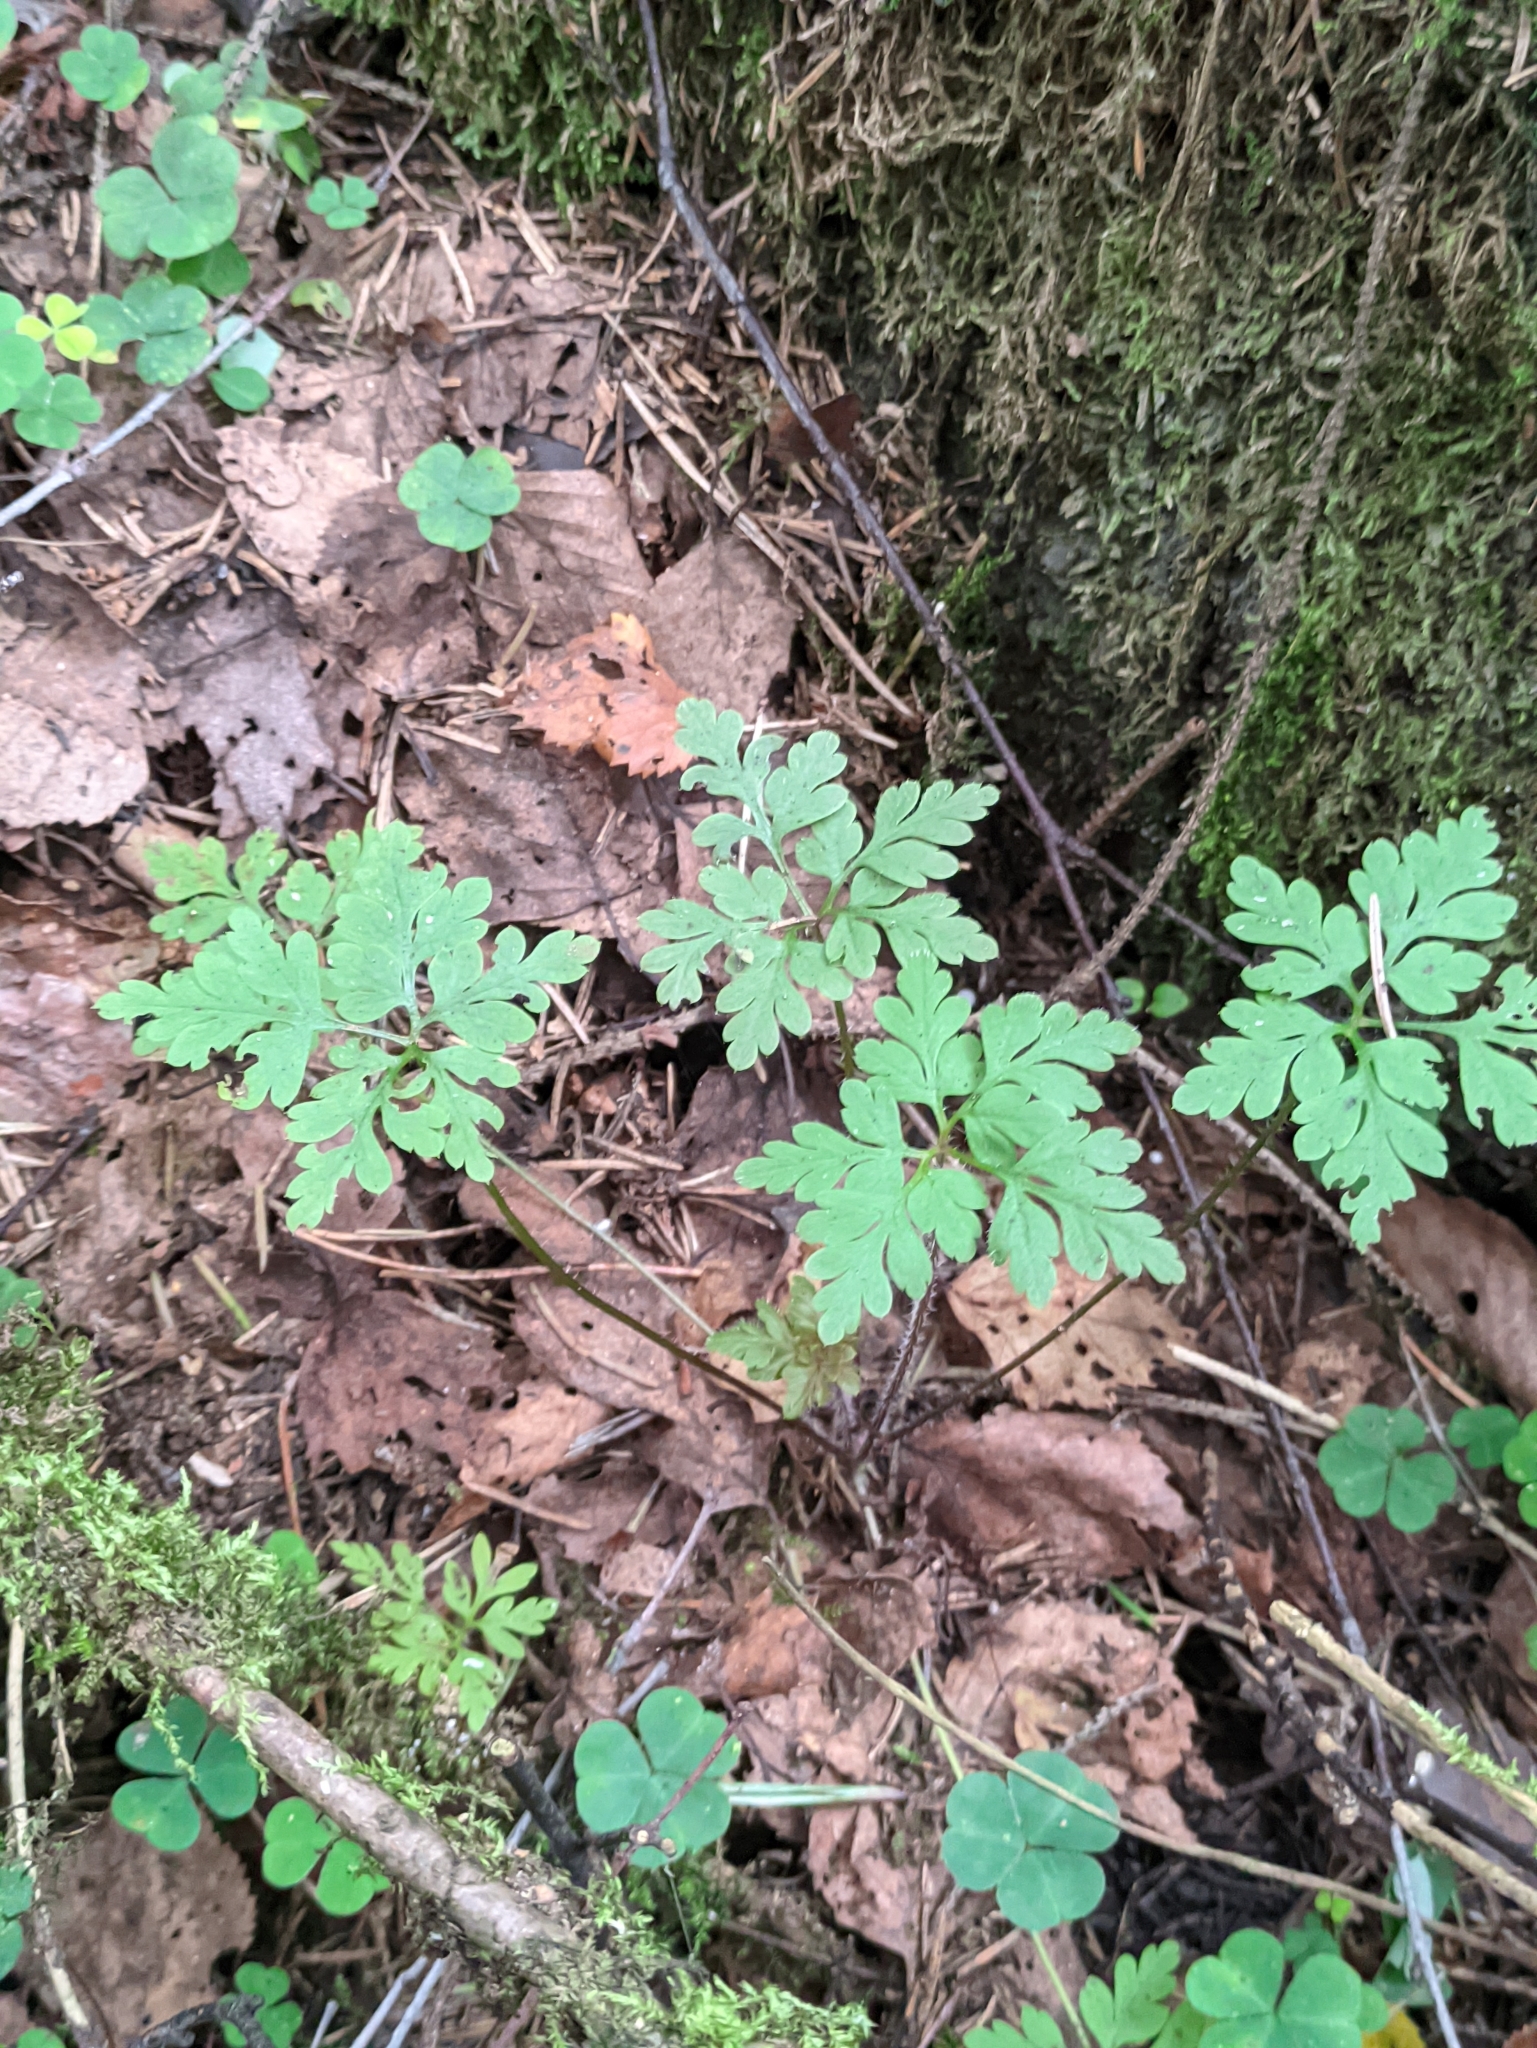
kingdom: Plantae
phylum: Tracheophyta
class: Magnoliopsida
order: Geraniales
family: Geraniaceae
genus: Geranium
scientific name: Geranium robertianum
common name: Herb-robert
